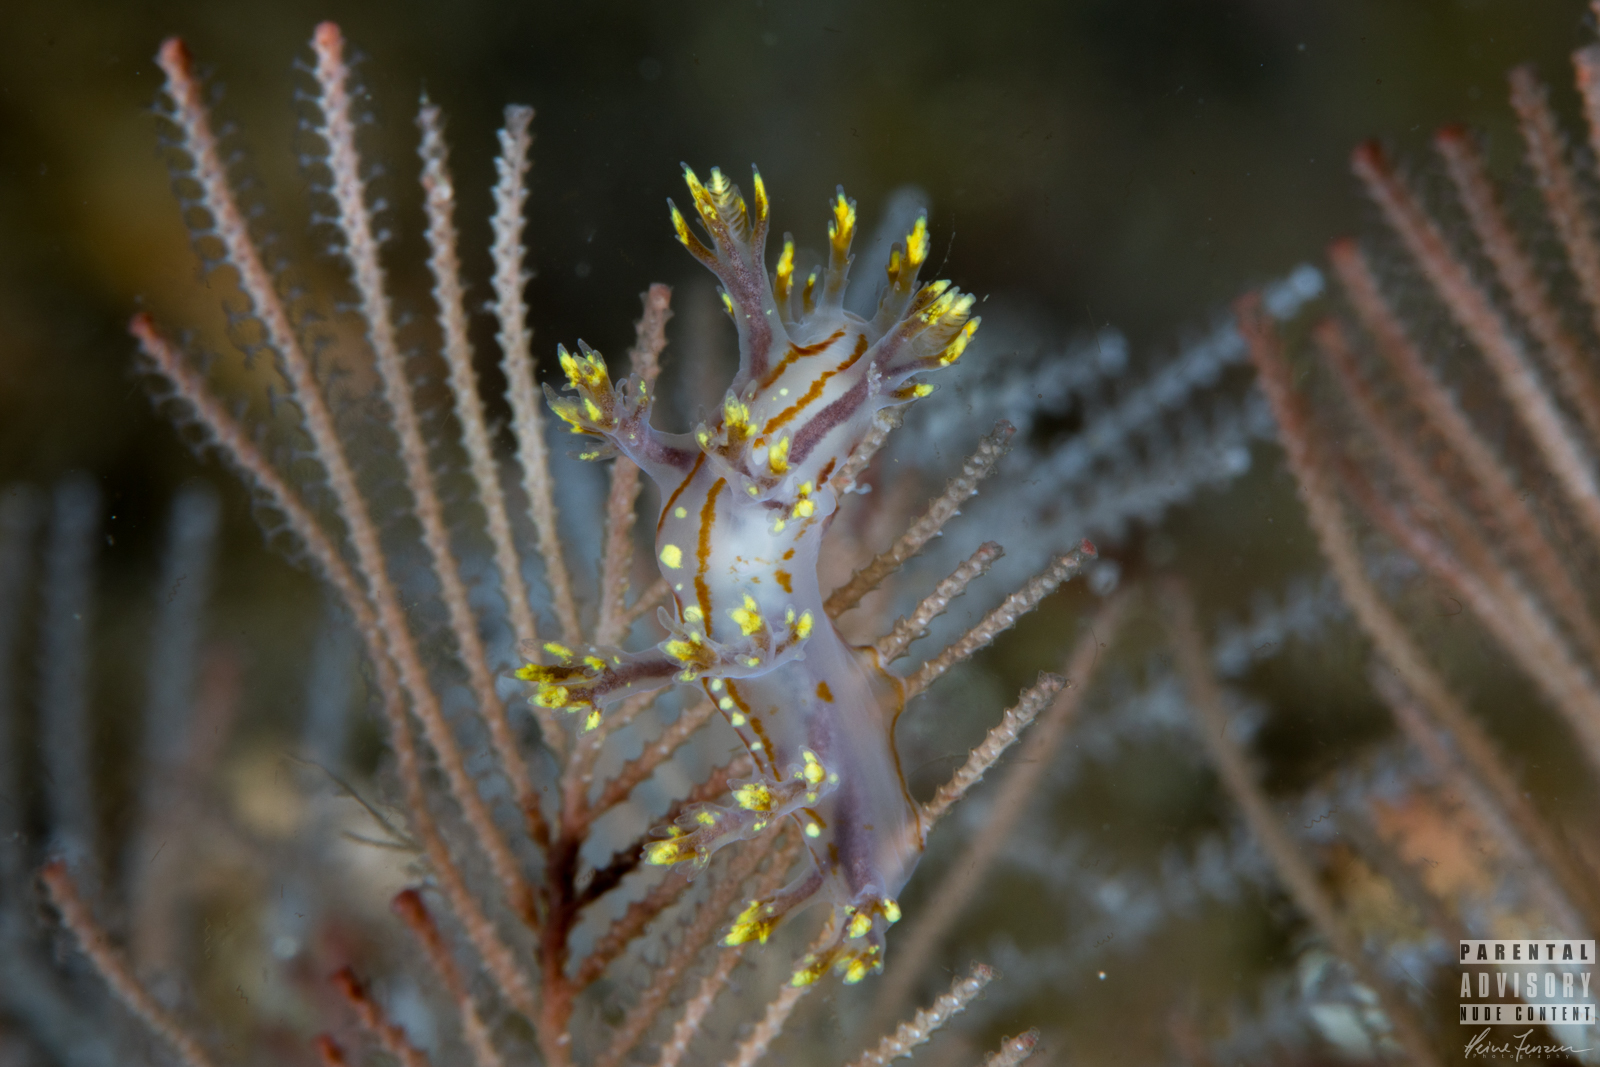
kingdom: Animalia
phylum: Mollusca
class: Gastropoda
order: Nudibranchia
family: Dendronotidae
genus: Dendronotus
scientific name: Dendronotus yrjargul
